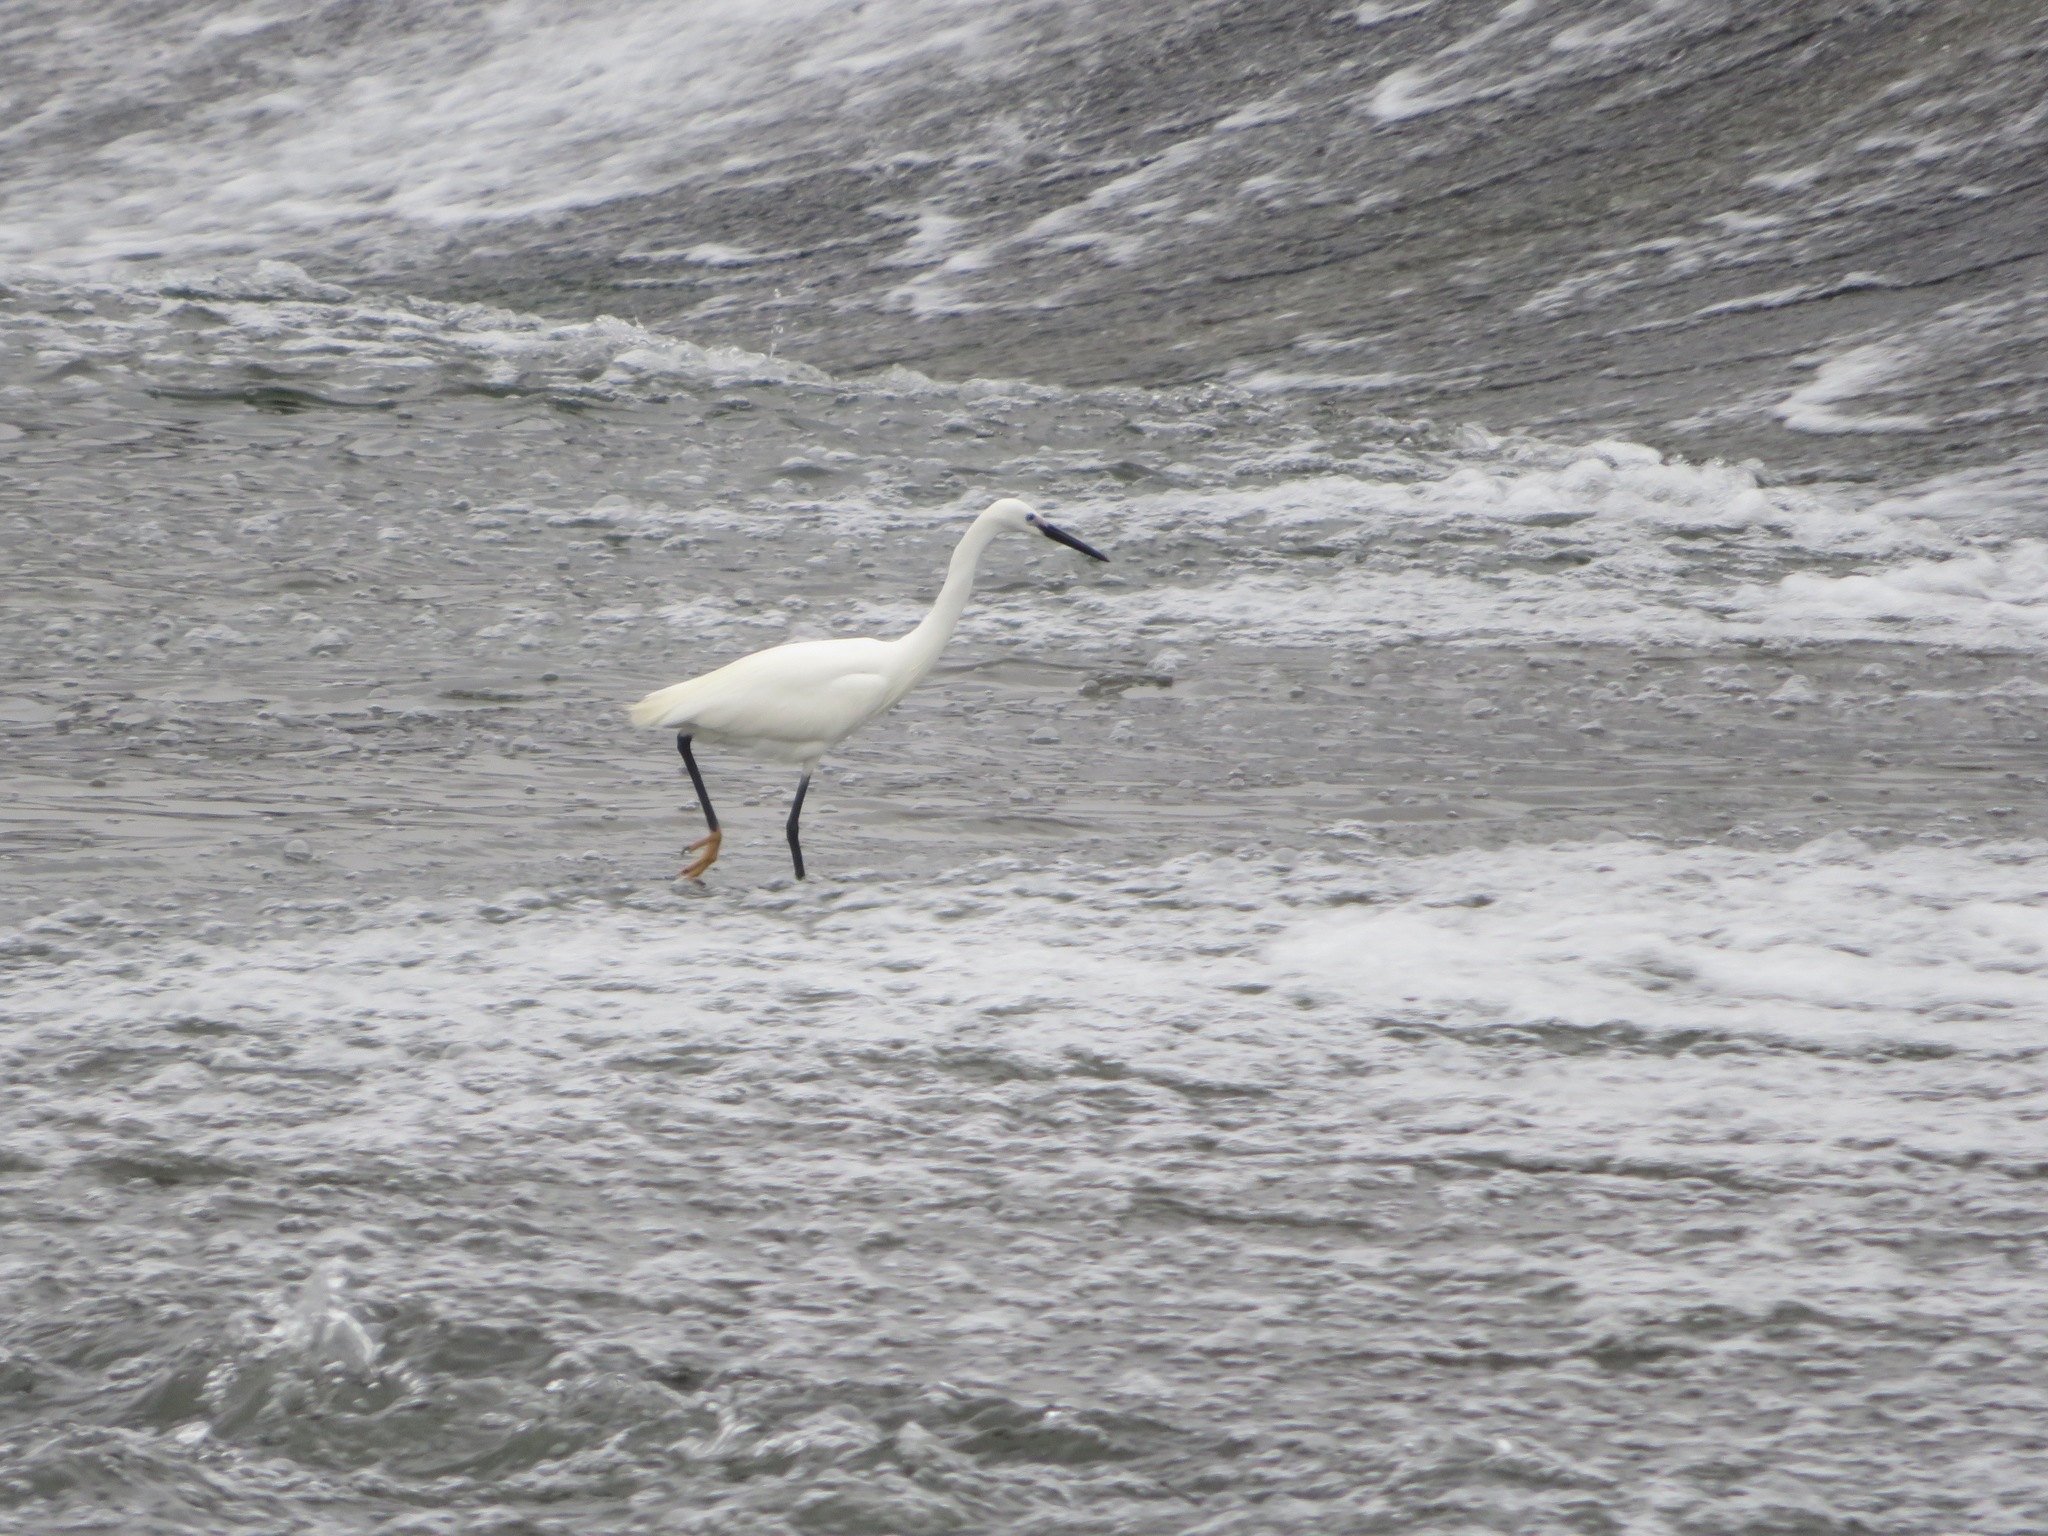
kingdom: Animalia
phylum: Chordata
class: Aves
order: Pelecaniformes
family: Ardeidae
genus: Egretta
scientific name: Egretta garzetta
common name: Little egret
